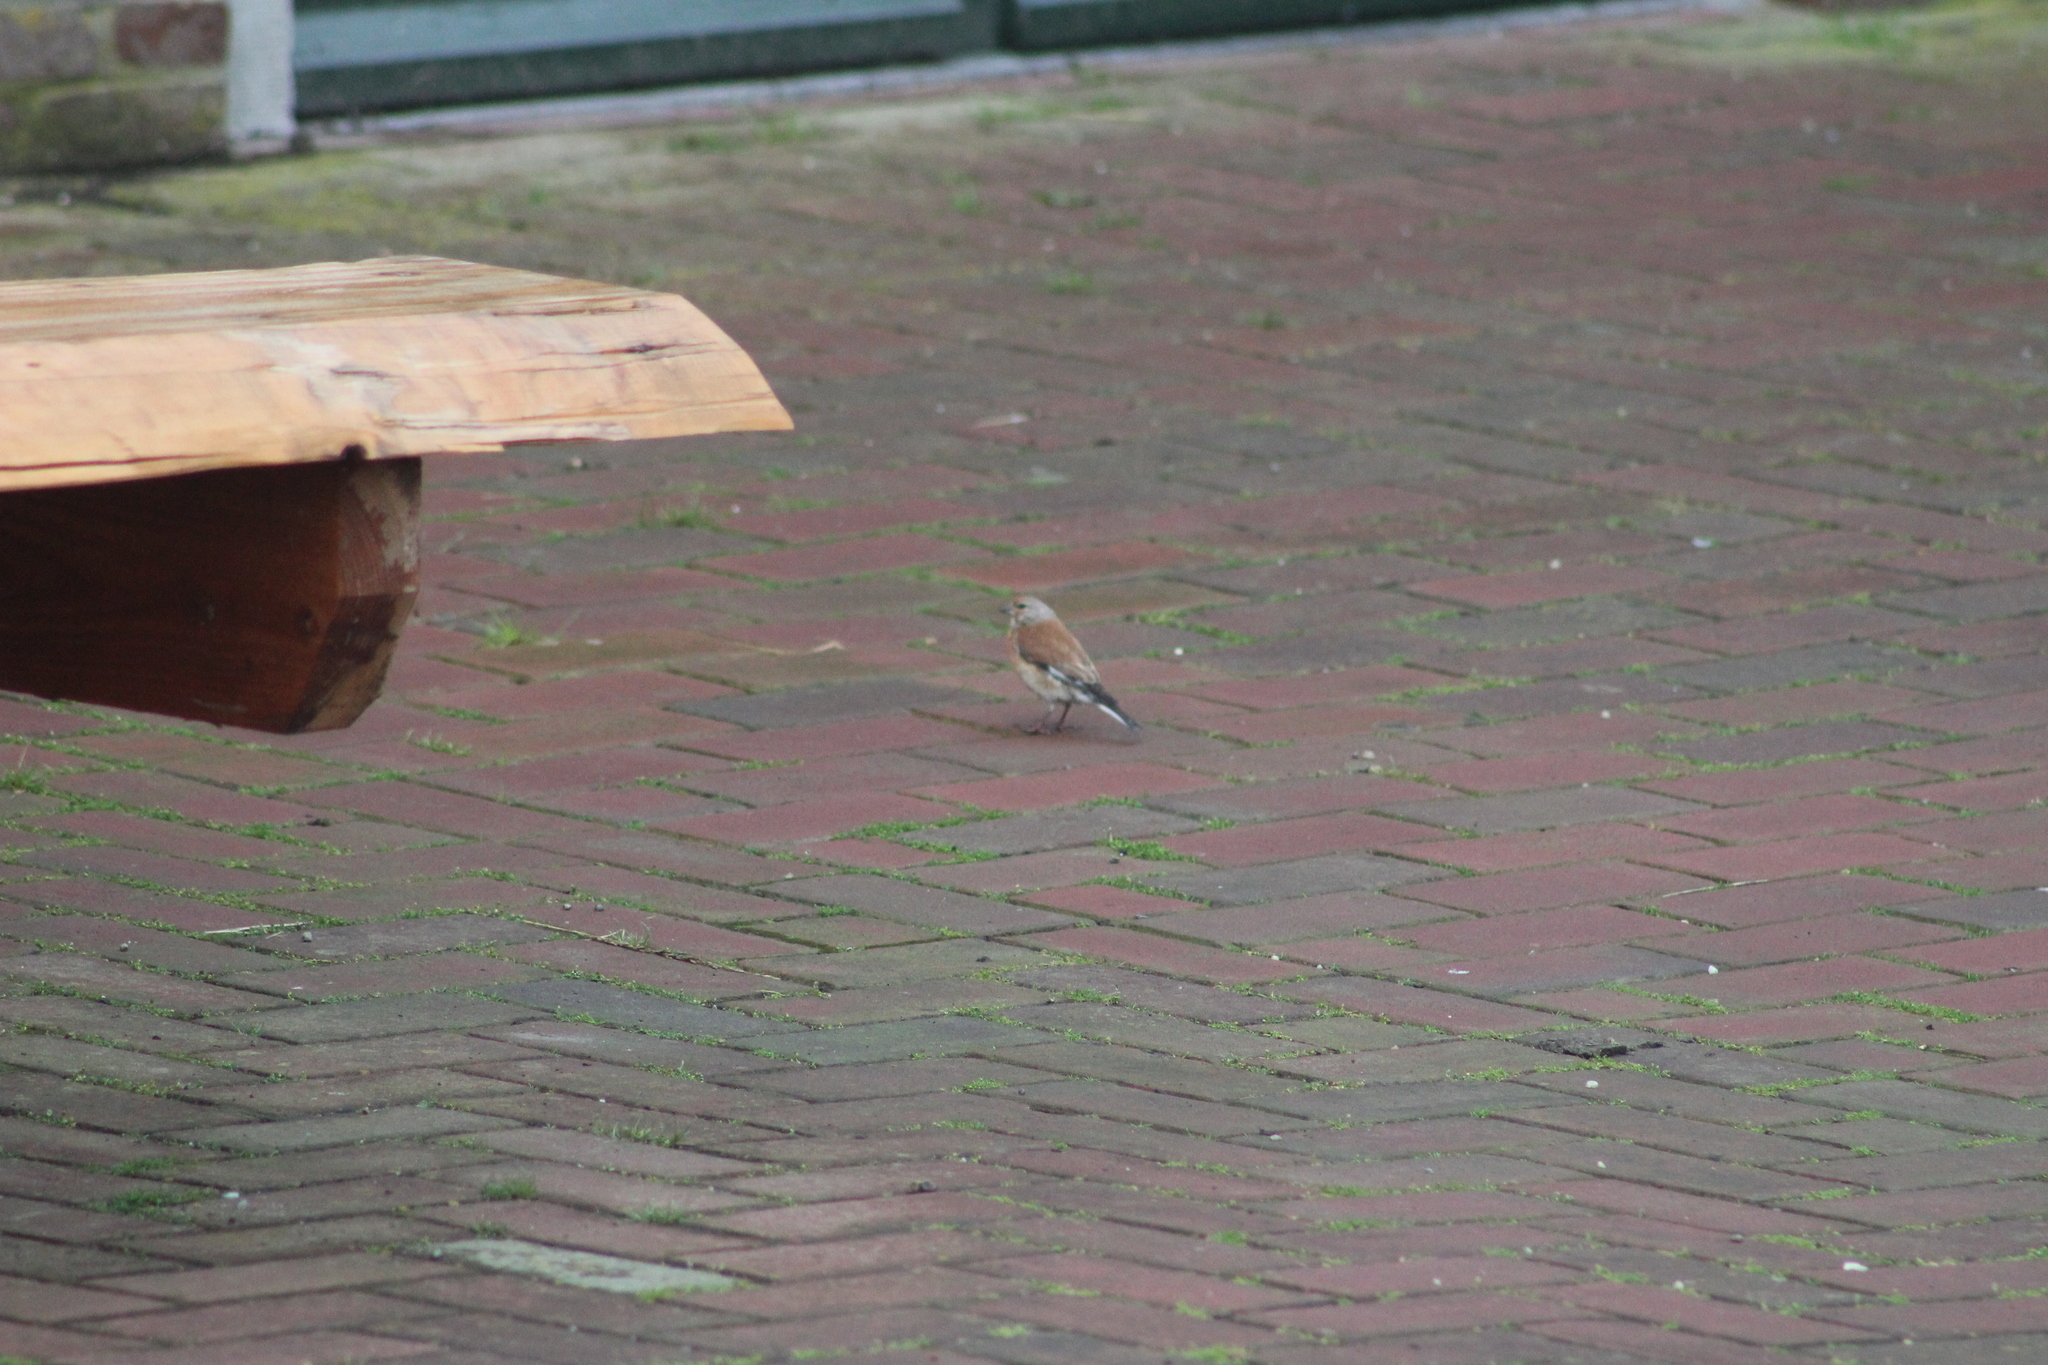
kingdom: Animalia
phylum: Chordata
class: Aves
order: Passeriformes
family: Fringillidae
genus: Linaria
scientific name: Linaria cannabina
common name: Common linnet
